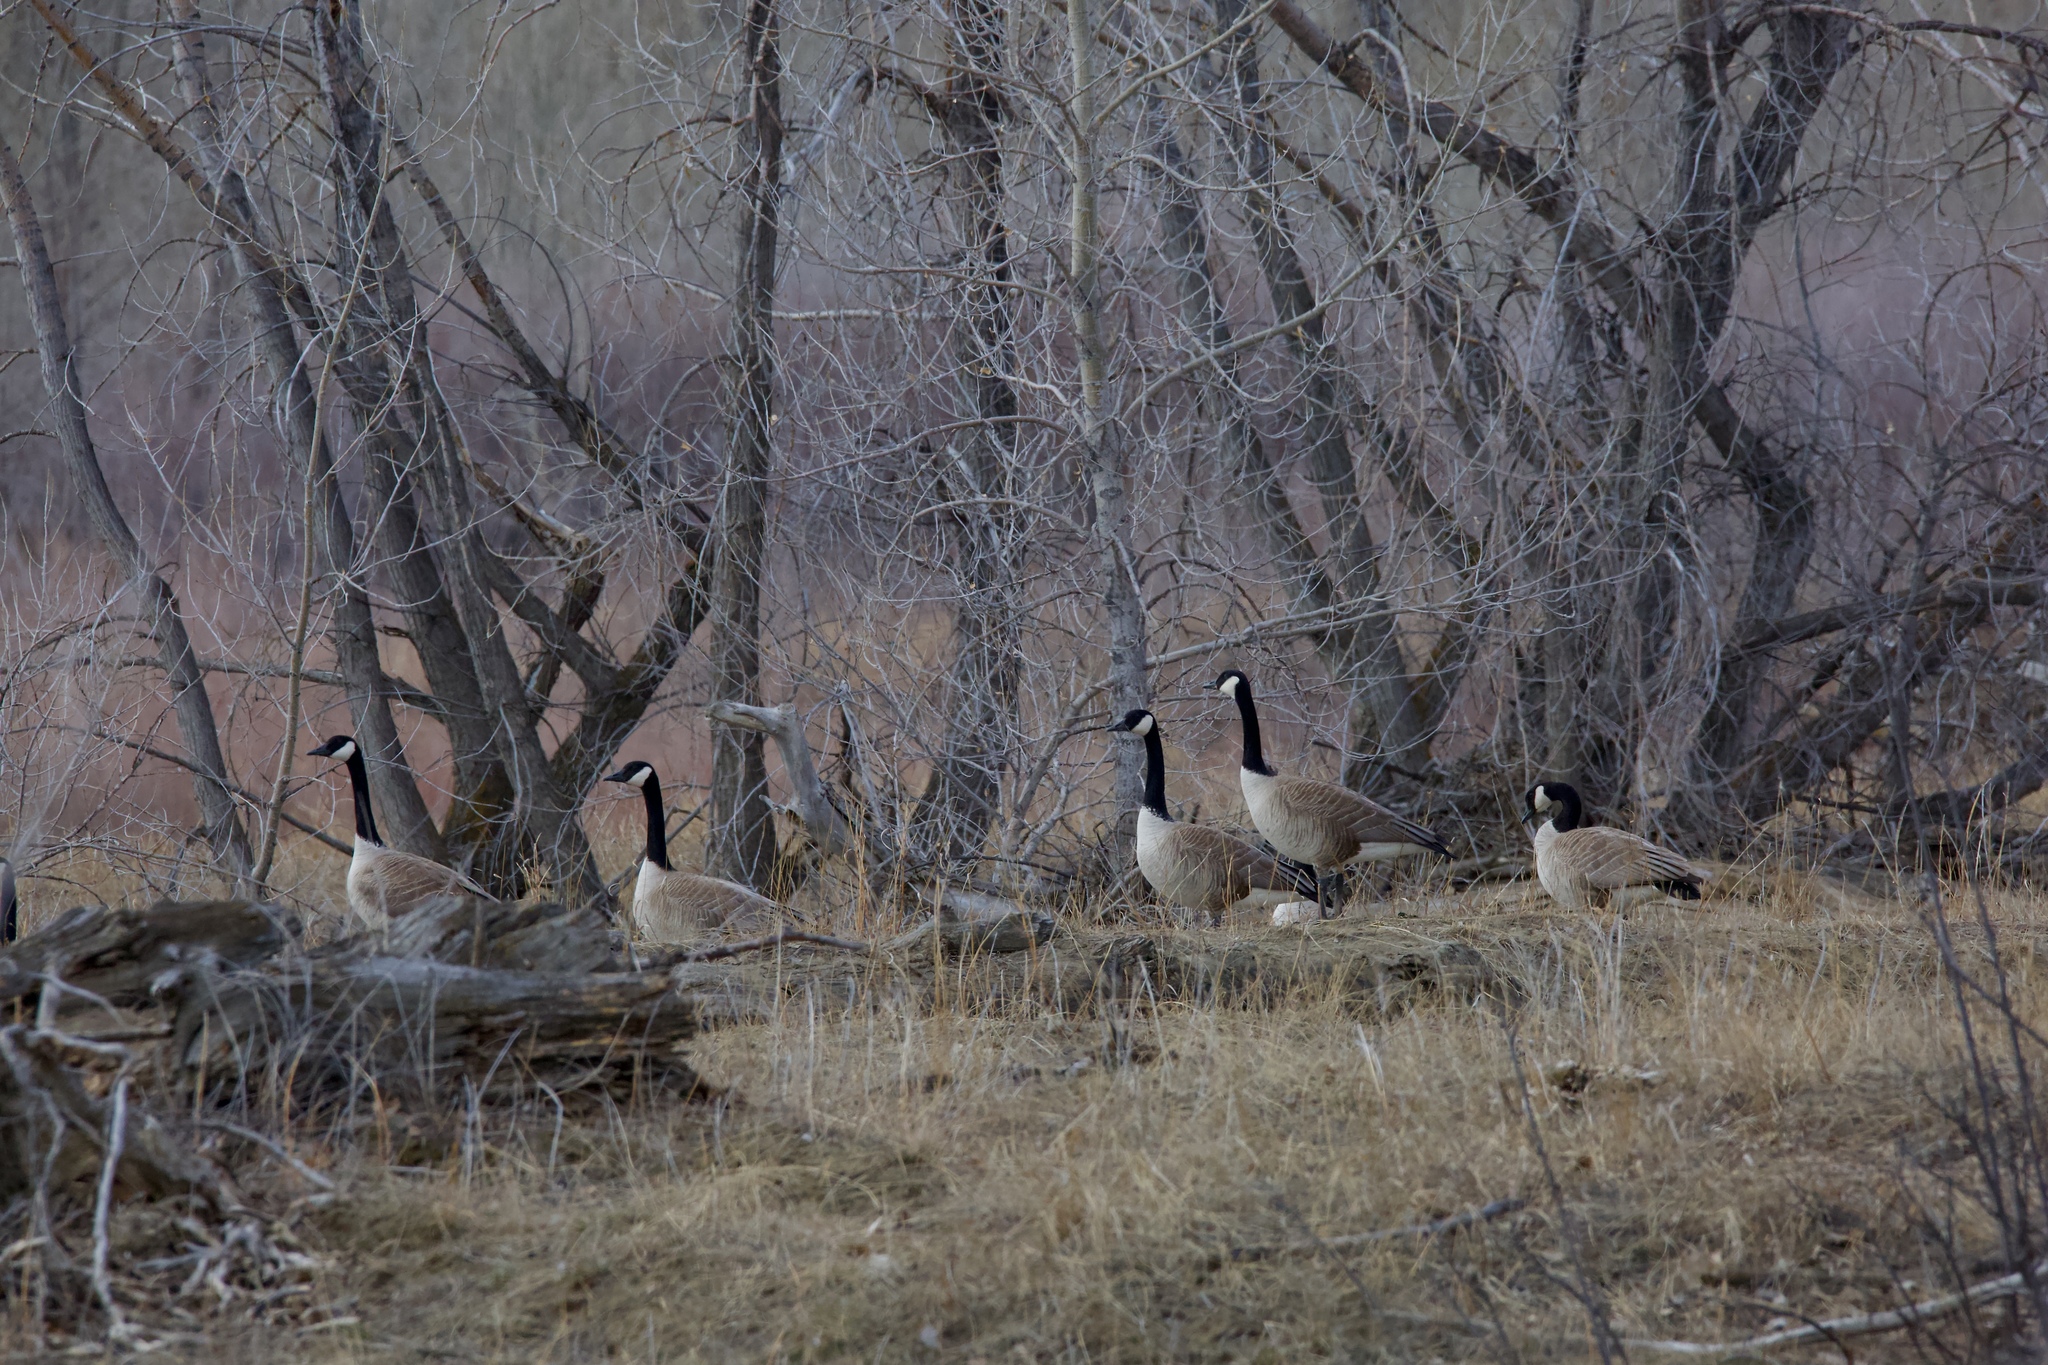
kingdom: Animalia
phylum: Chordata
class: Aves
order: Anseriformes
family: Anatidae
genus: Branta
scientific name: Branta canadensis
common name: Canada goose
